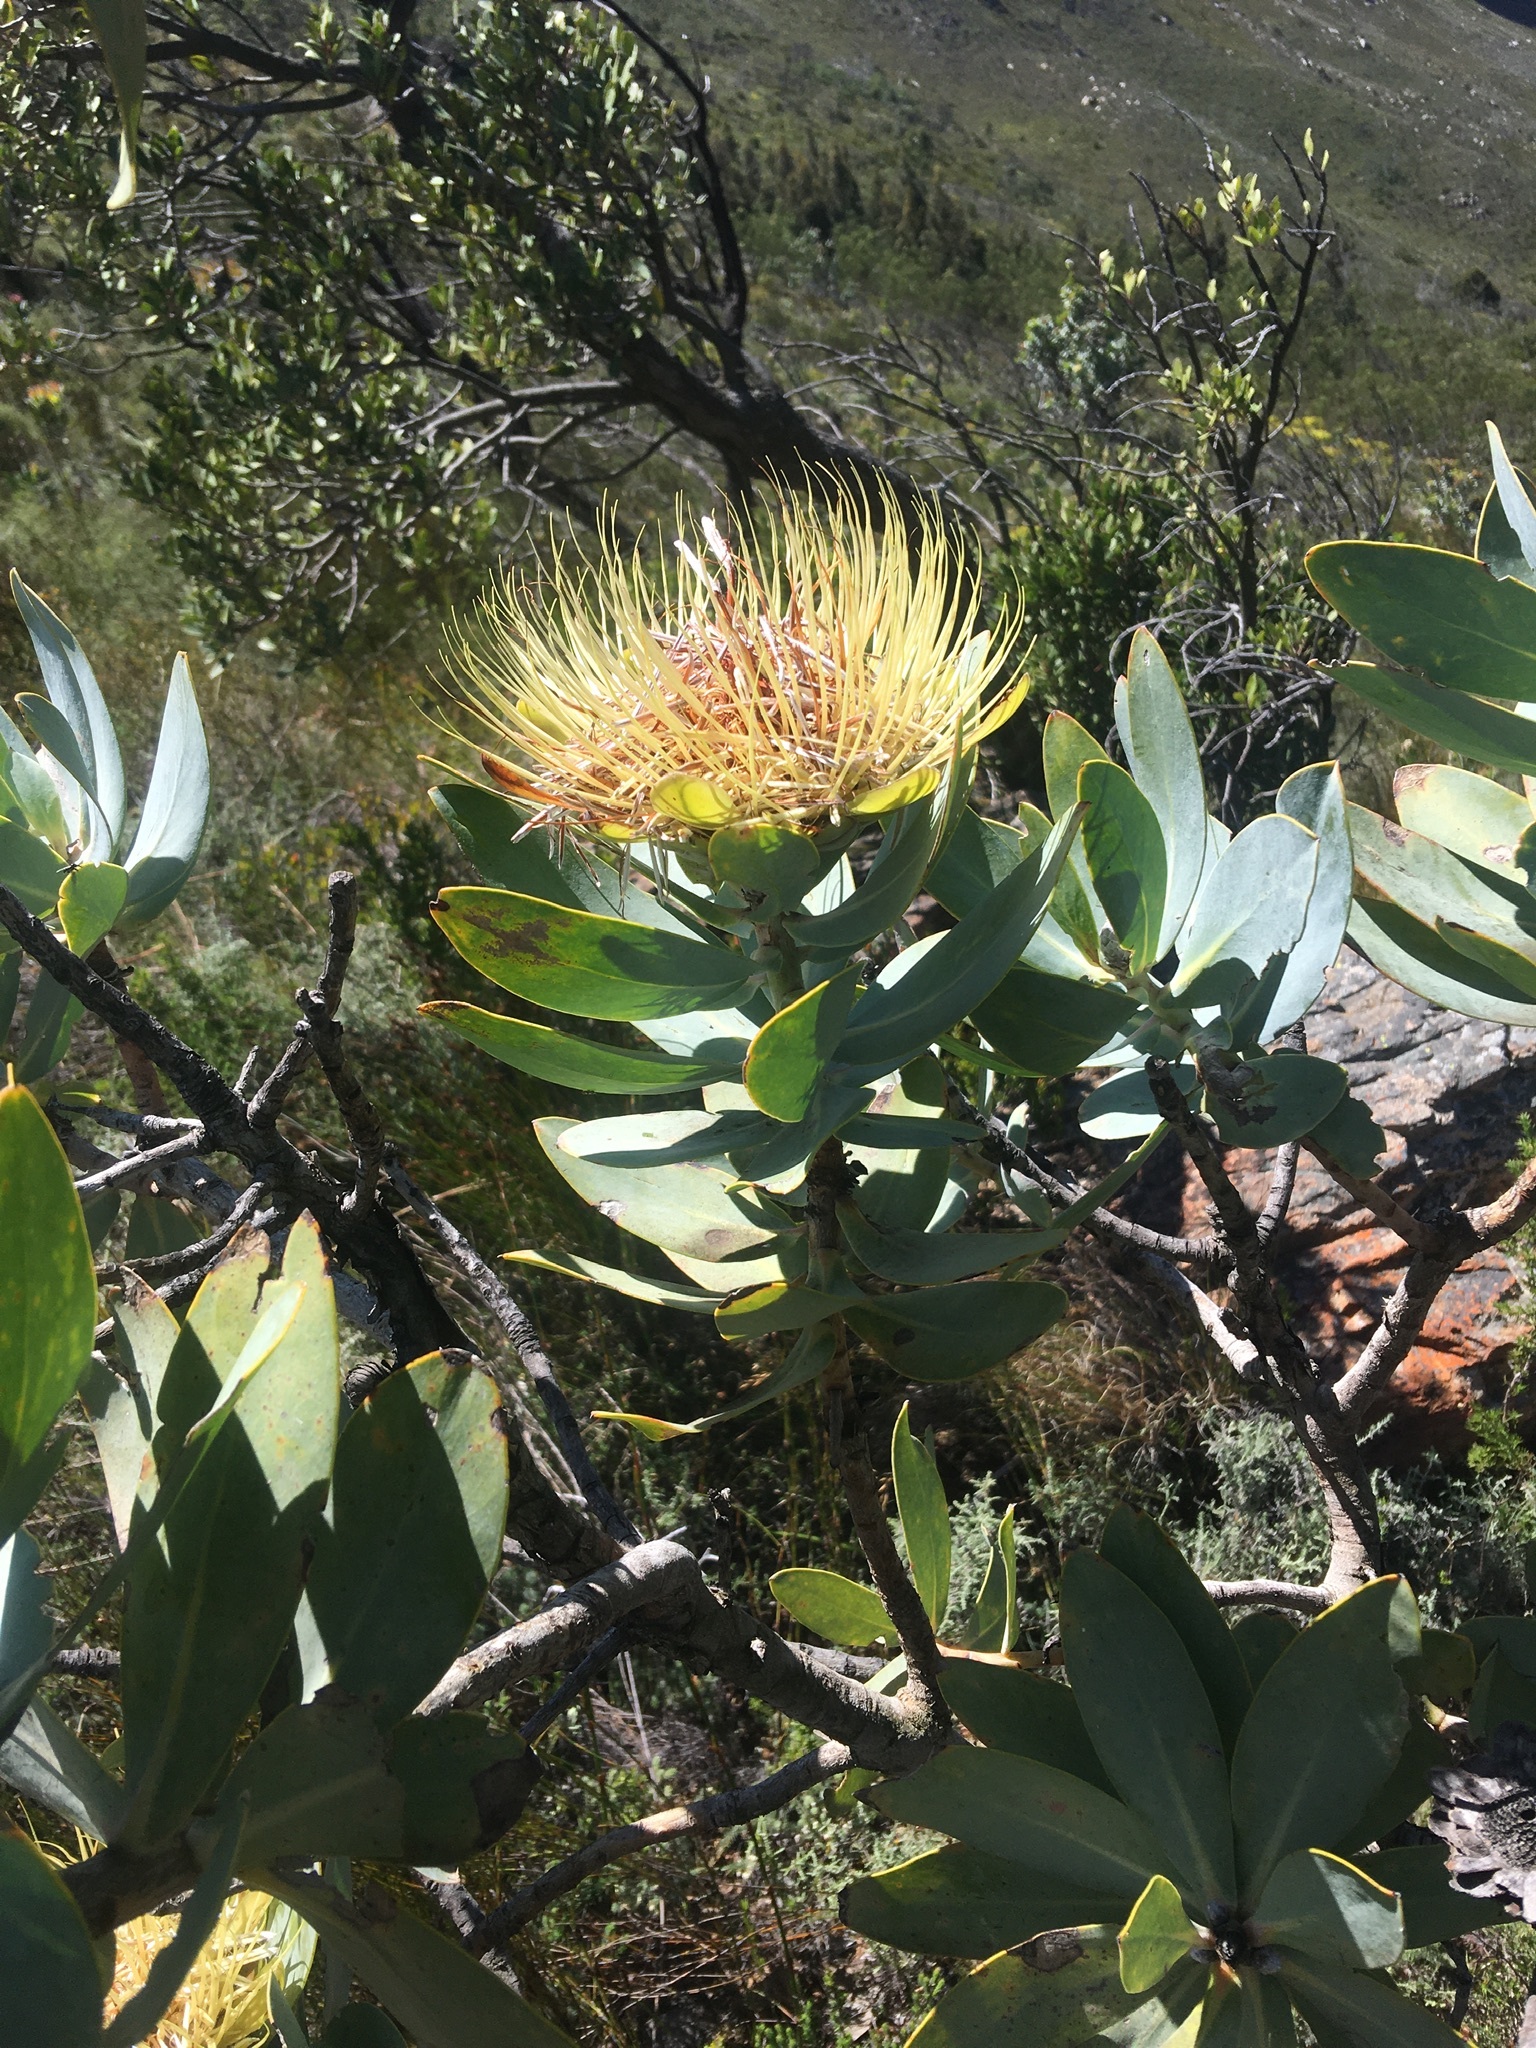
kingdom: Plantae
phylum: Tracheophyta
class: Magnoliopsida
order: Proteales
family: Proteaceae
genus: Protea
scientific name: Protea nitida
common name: Tree protea
